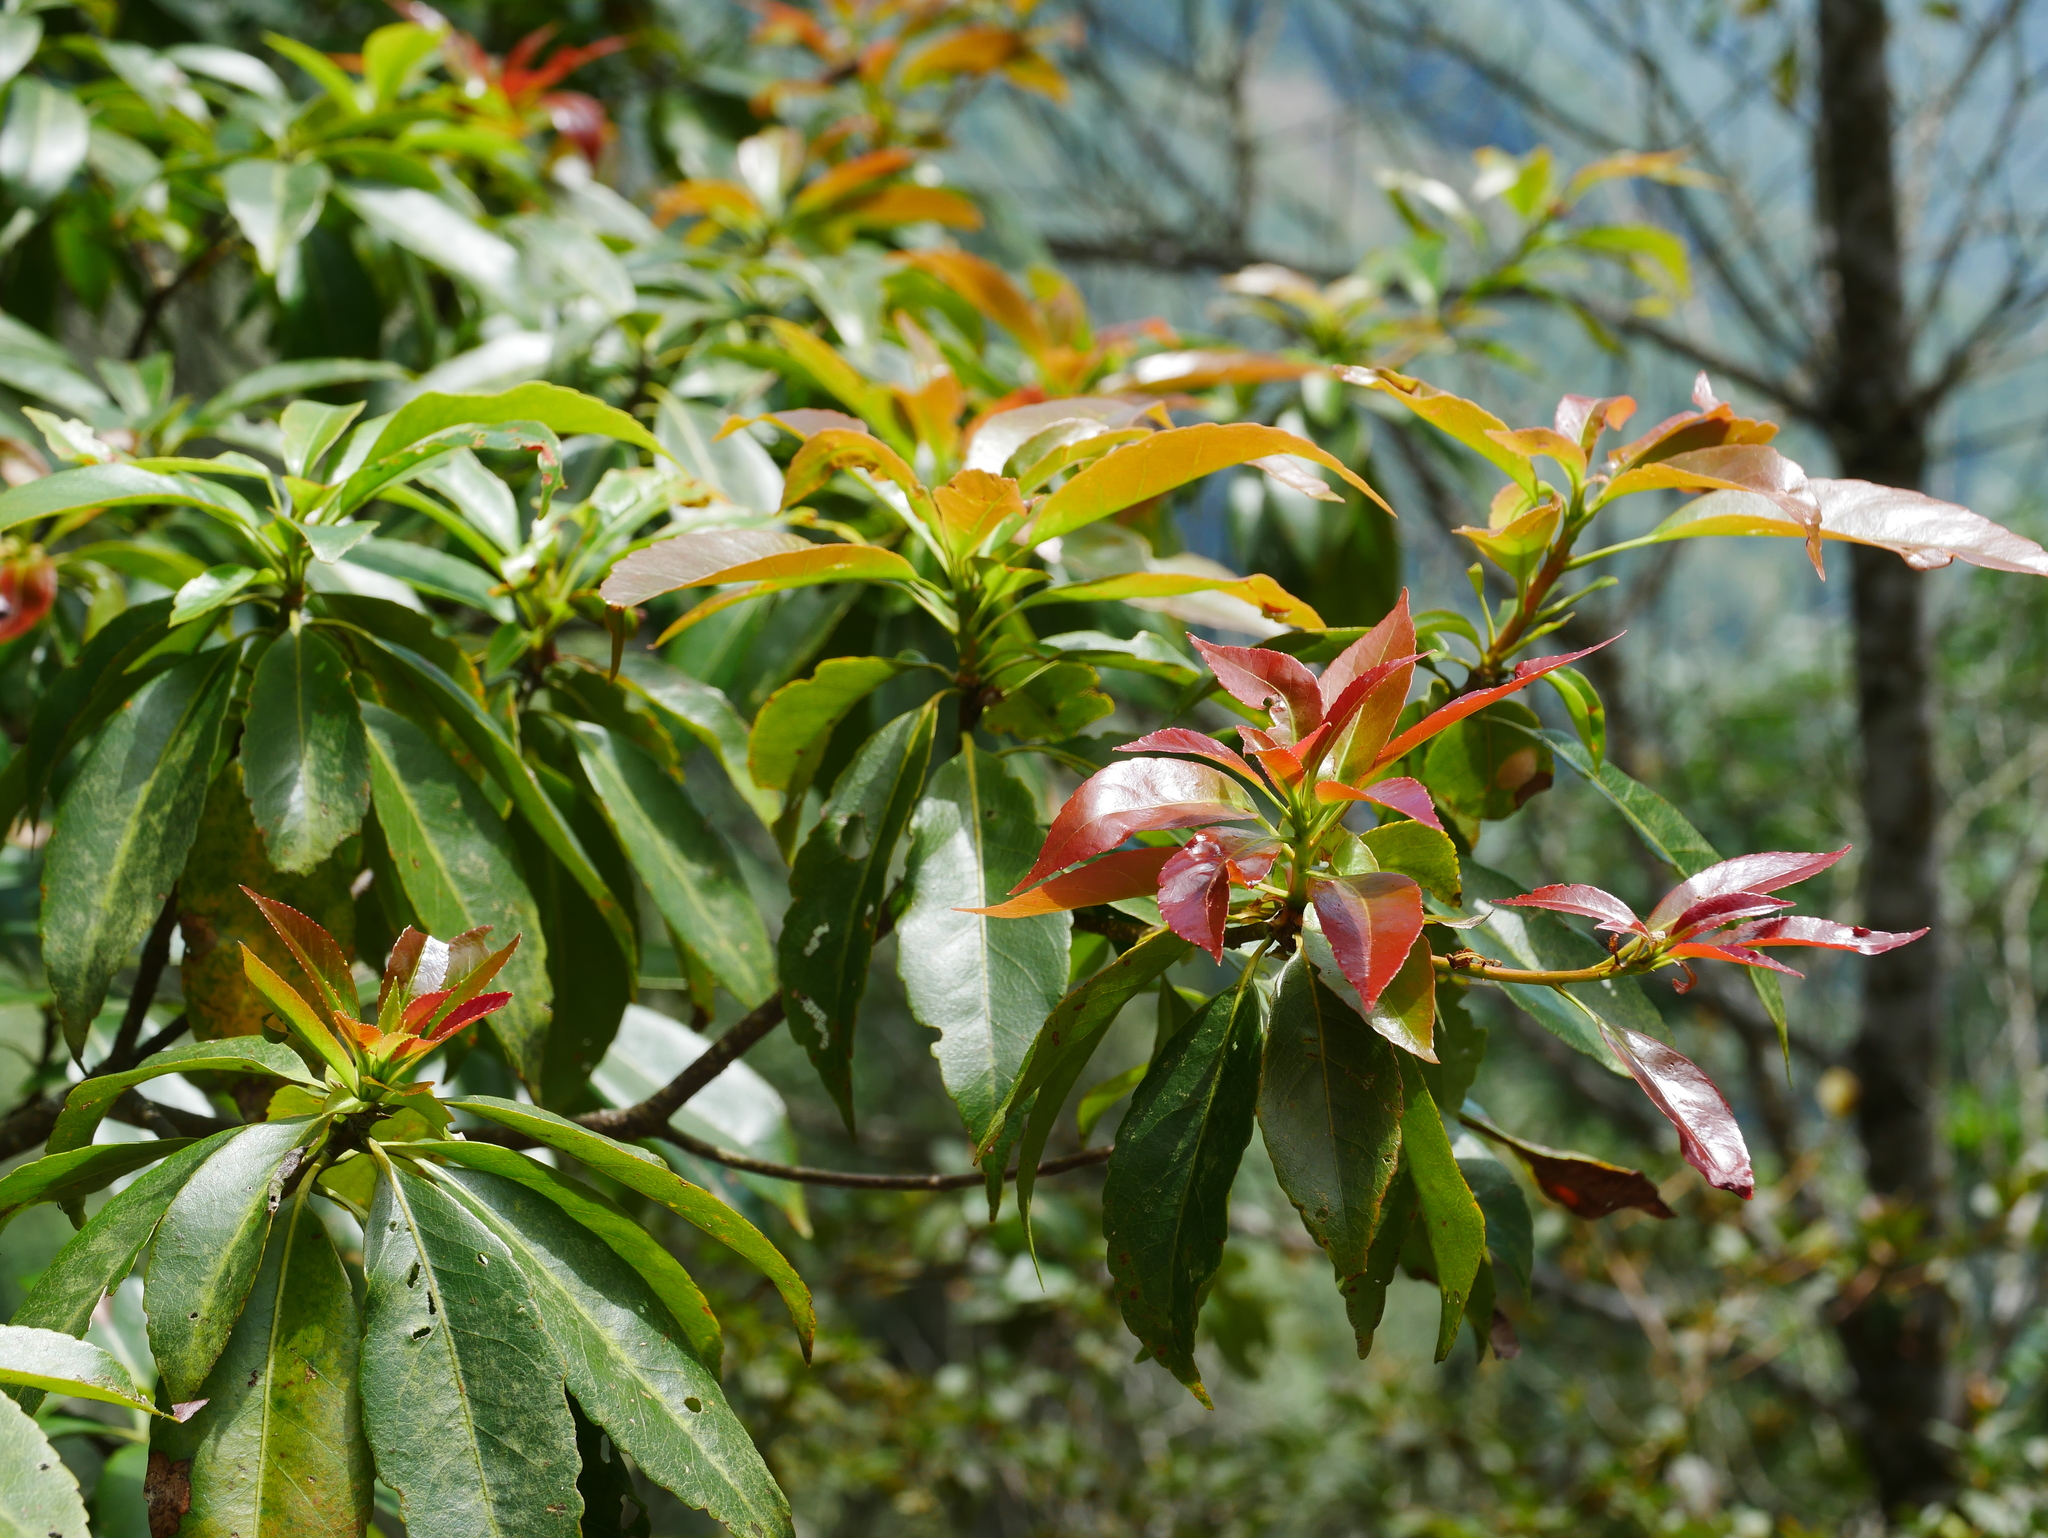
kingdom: Plantae
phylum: Tracheophyta
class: Magnoliopsida
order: Ericales
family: Theaceae
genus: Schima
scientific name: Schima superba
